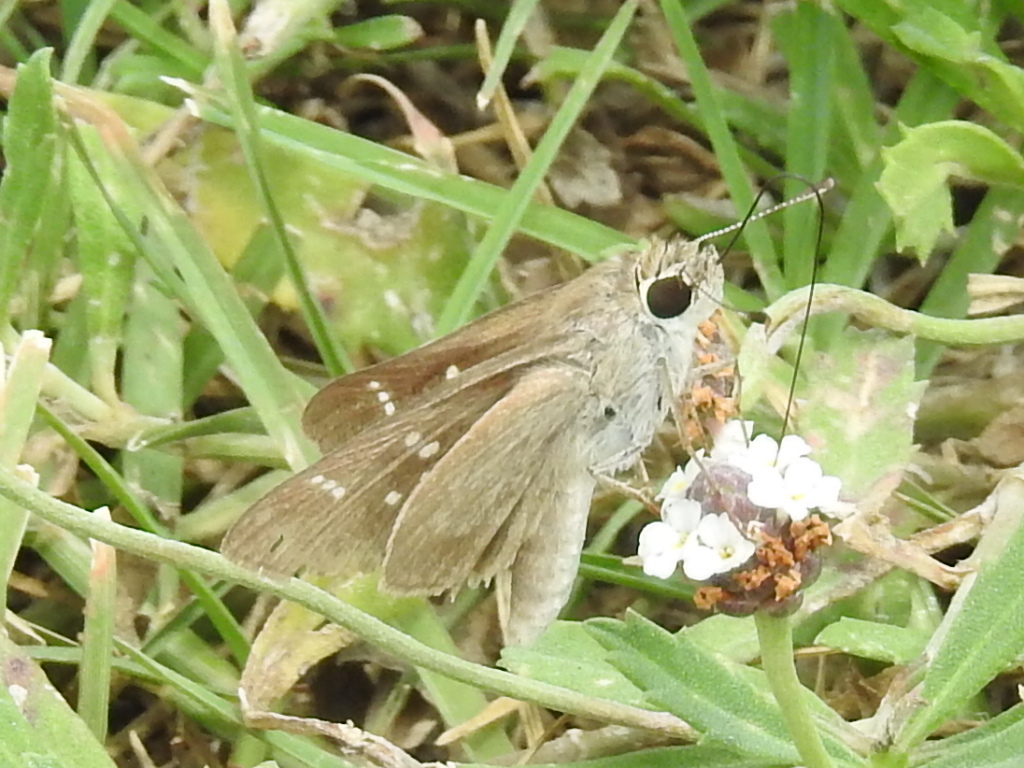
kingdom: Animalia
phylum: Arthropoda
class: Insecta
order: Lepidoptera
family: Hesperiidae
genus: Lerodea
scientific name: Lerodea eufala
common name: Eufala skipper
